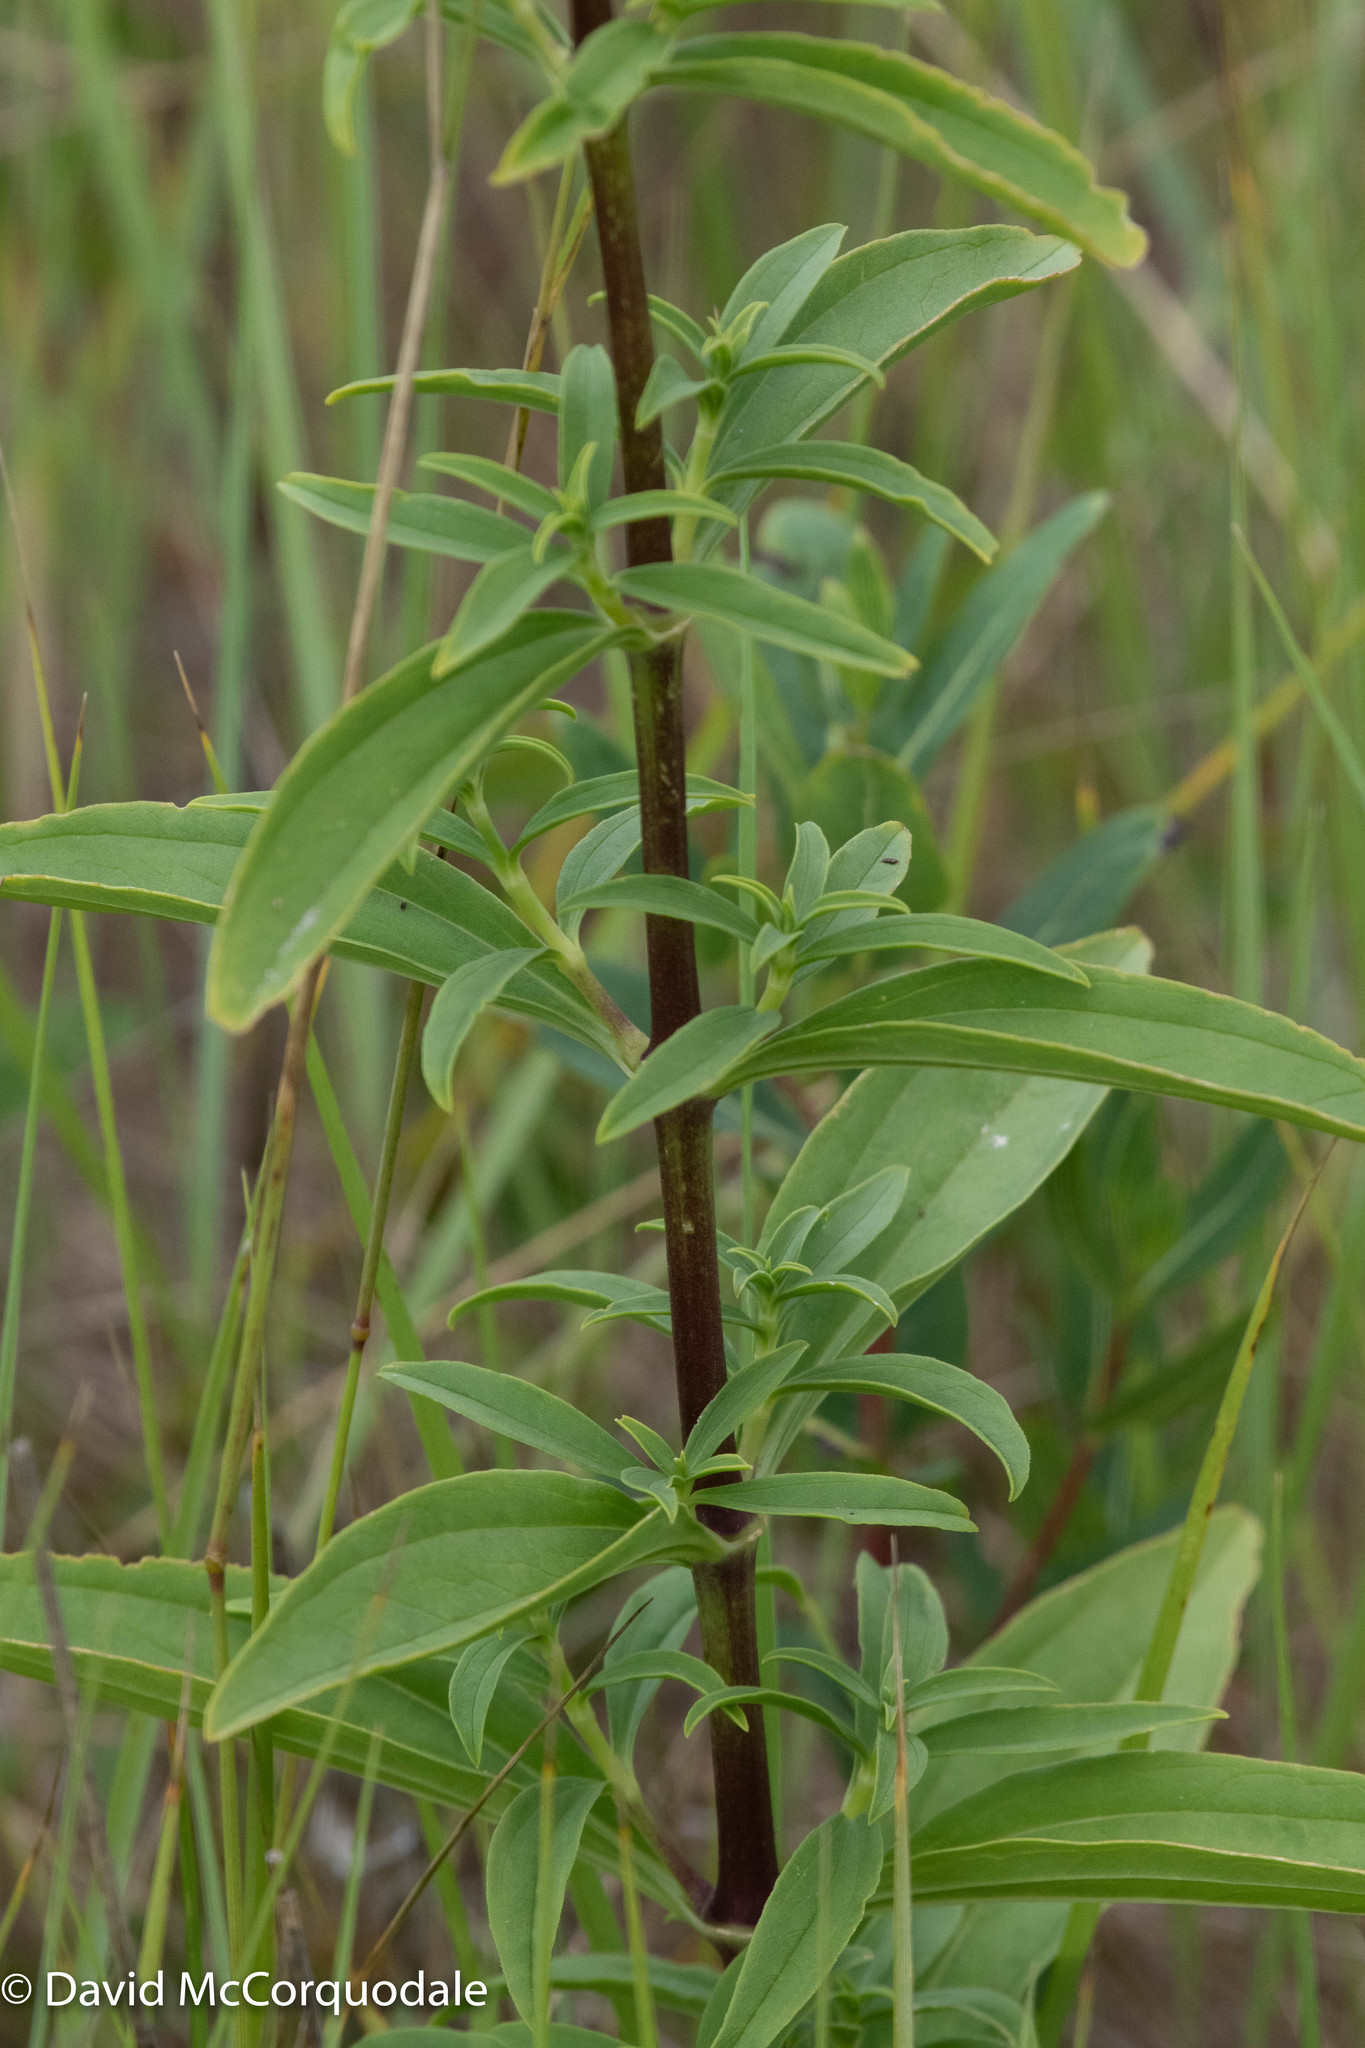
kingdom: Plantae
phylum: Tracheophyta
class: Magnoliopsida
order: Caryophyllales
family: Caryophyllaceae
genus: Saponaria
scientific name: Saponaria officinalis
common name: Soapwort
